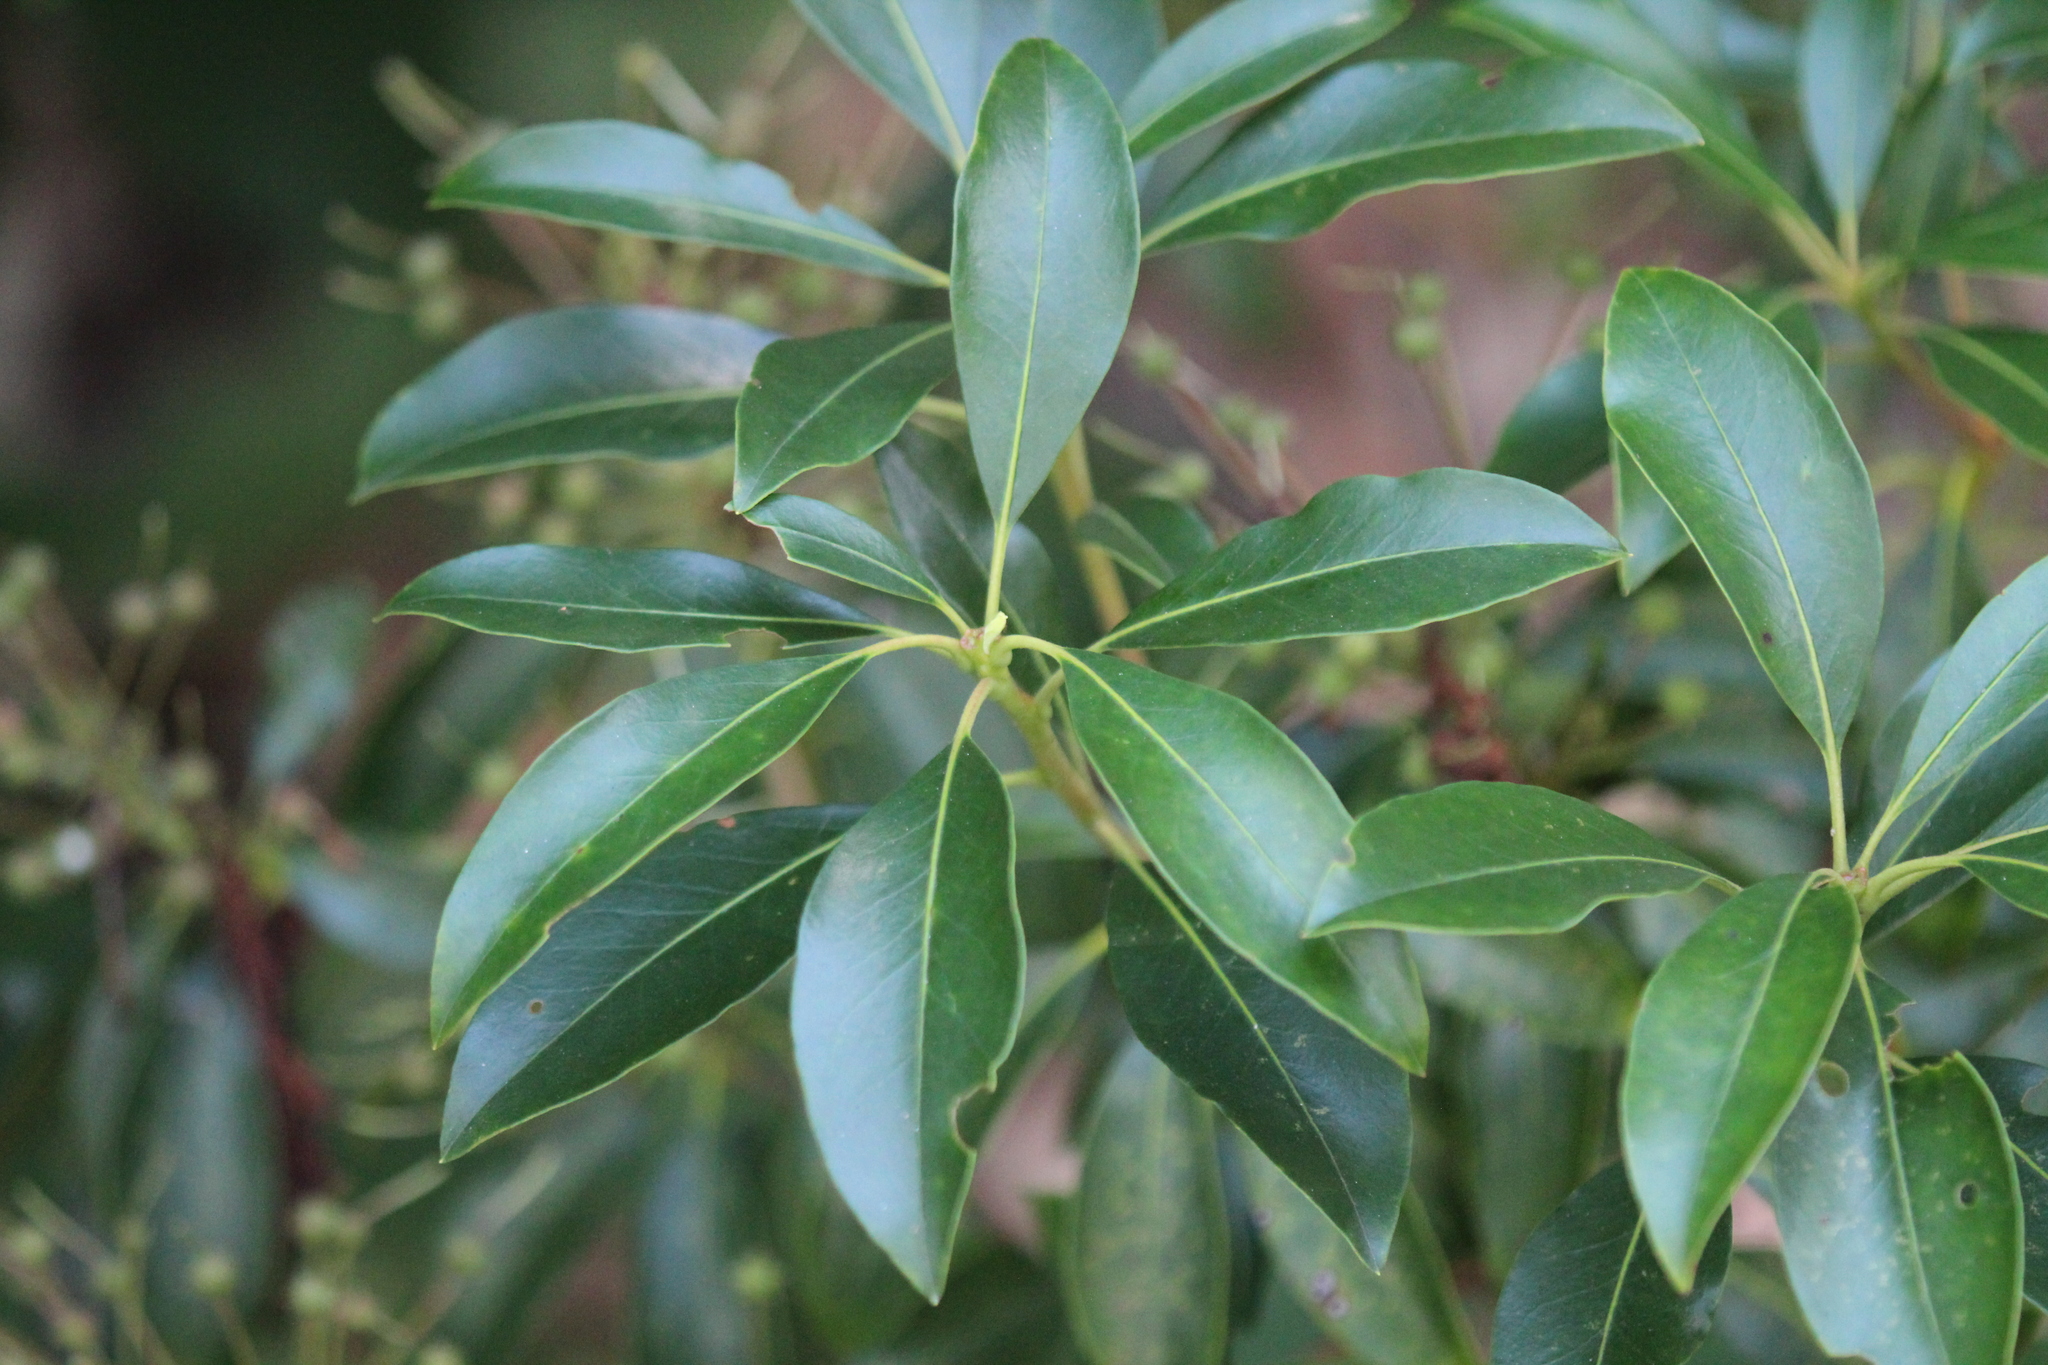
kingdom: Plantae
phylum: Tracheophyta
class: Magnoliopsida
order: Ericales
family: Ericaceae
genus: Kalmia
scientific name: Kalmia latifolia
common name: Mountain-laurel
